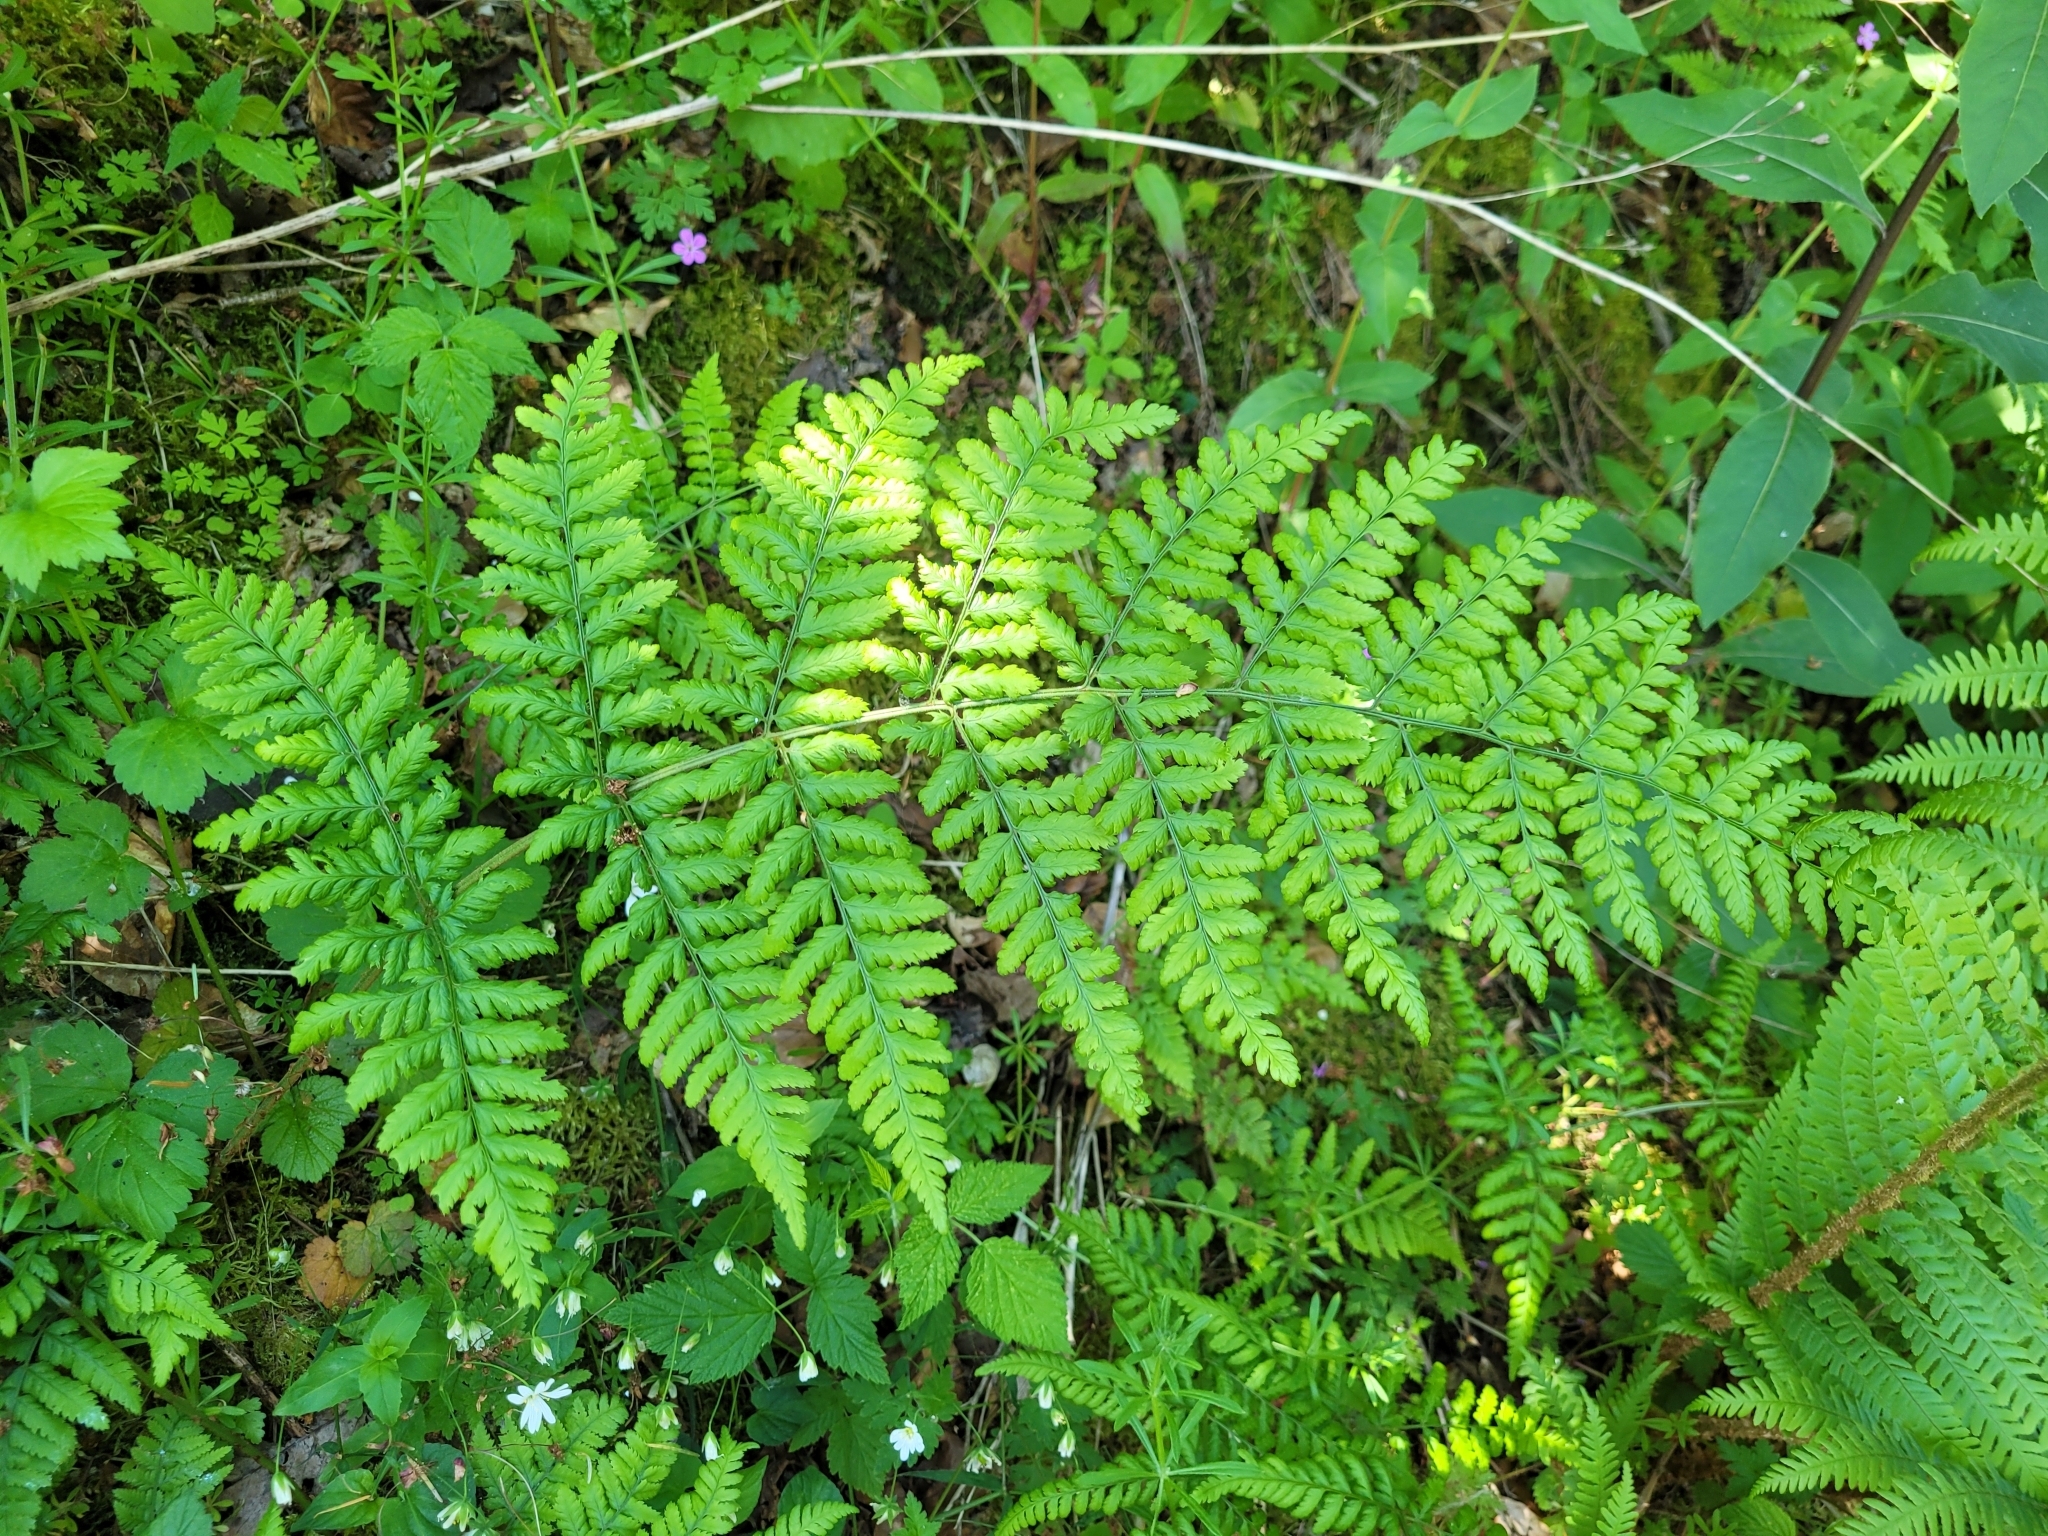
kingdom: Plantae
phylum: Tracheophyta
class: Polypodiopsida
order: Polypodiales
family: Dryopteridaceae
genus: Dryopteris
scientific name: Dryopteris dilatata
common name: Broad buckler-fern
